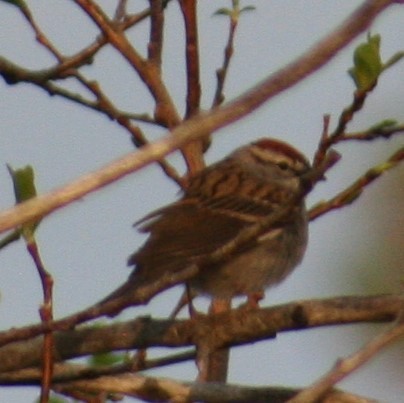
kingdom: Animalia
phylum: Chordata
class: Aves
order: Passeriformes
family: Passerellidae
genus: Spizella
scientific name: Spizella passerina
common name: Chipping sparrow
